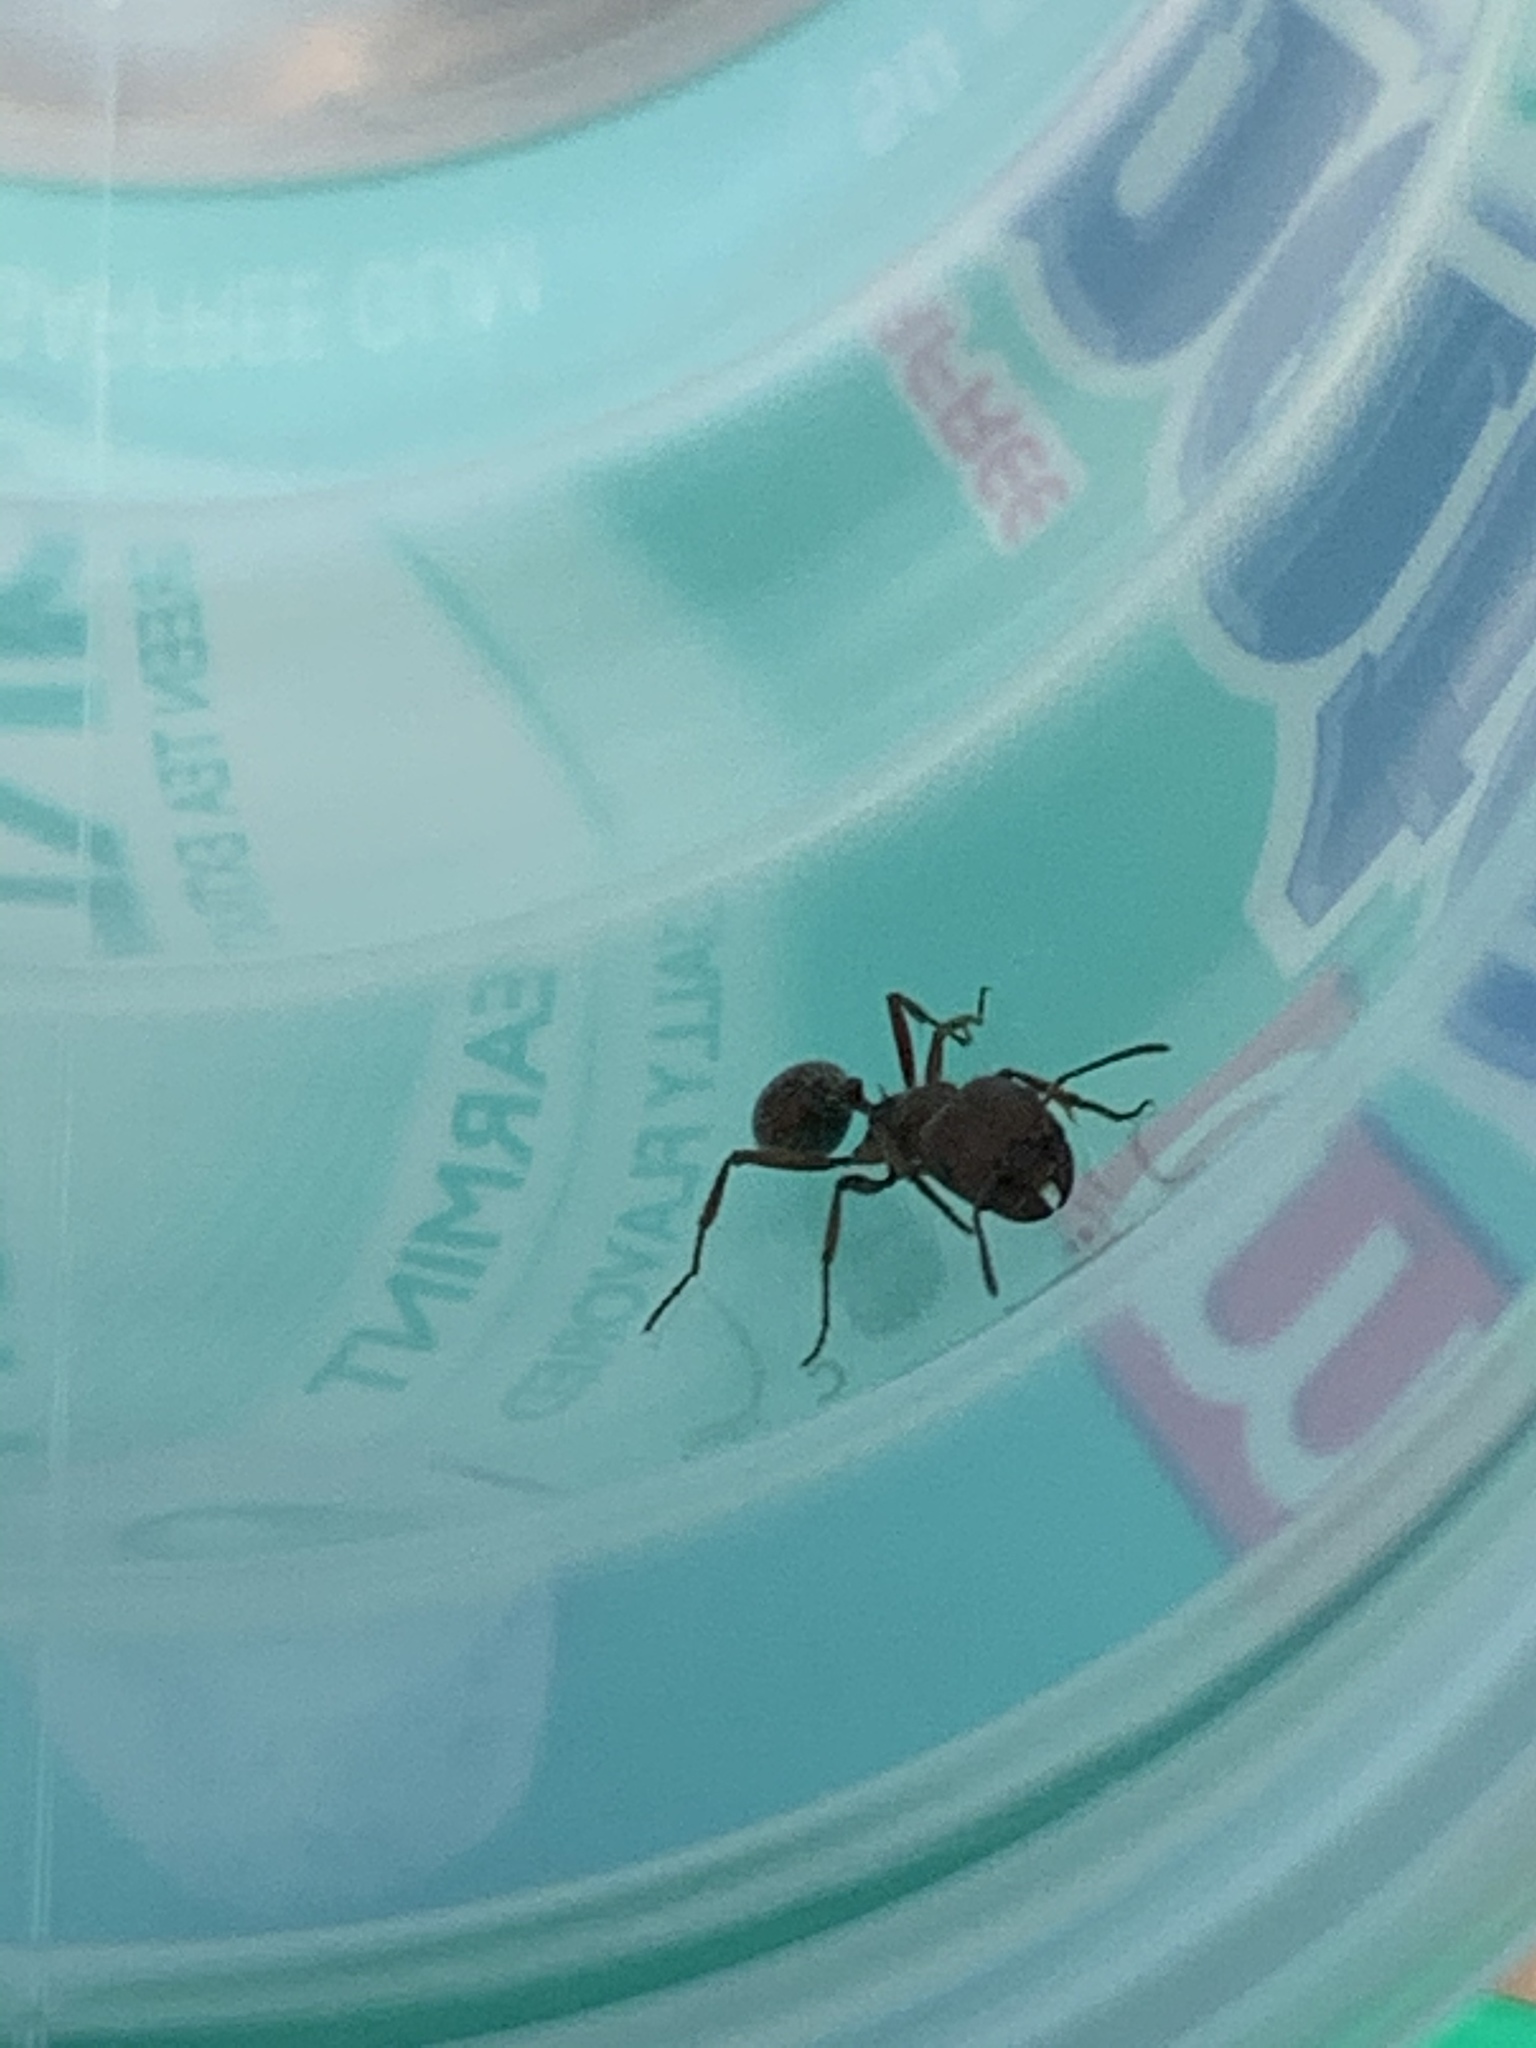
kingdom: Animalia
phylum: Arthropoda
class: Insecta
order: Hymenoptera
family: Formicidae
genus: Pogonomyrmex
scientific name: Pogonomyrmex barbatus
